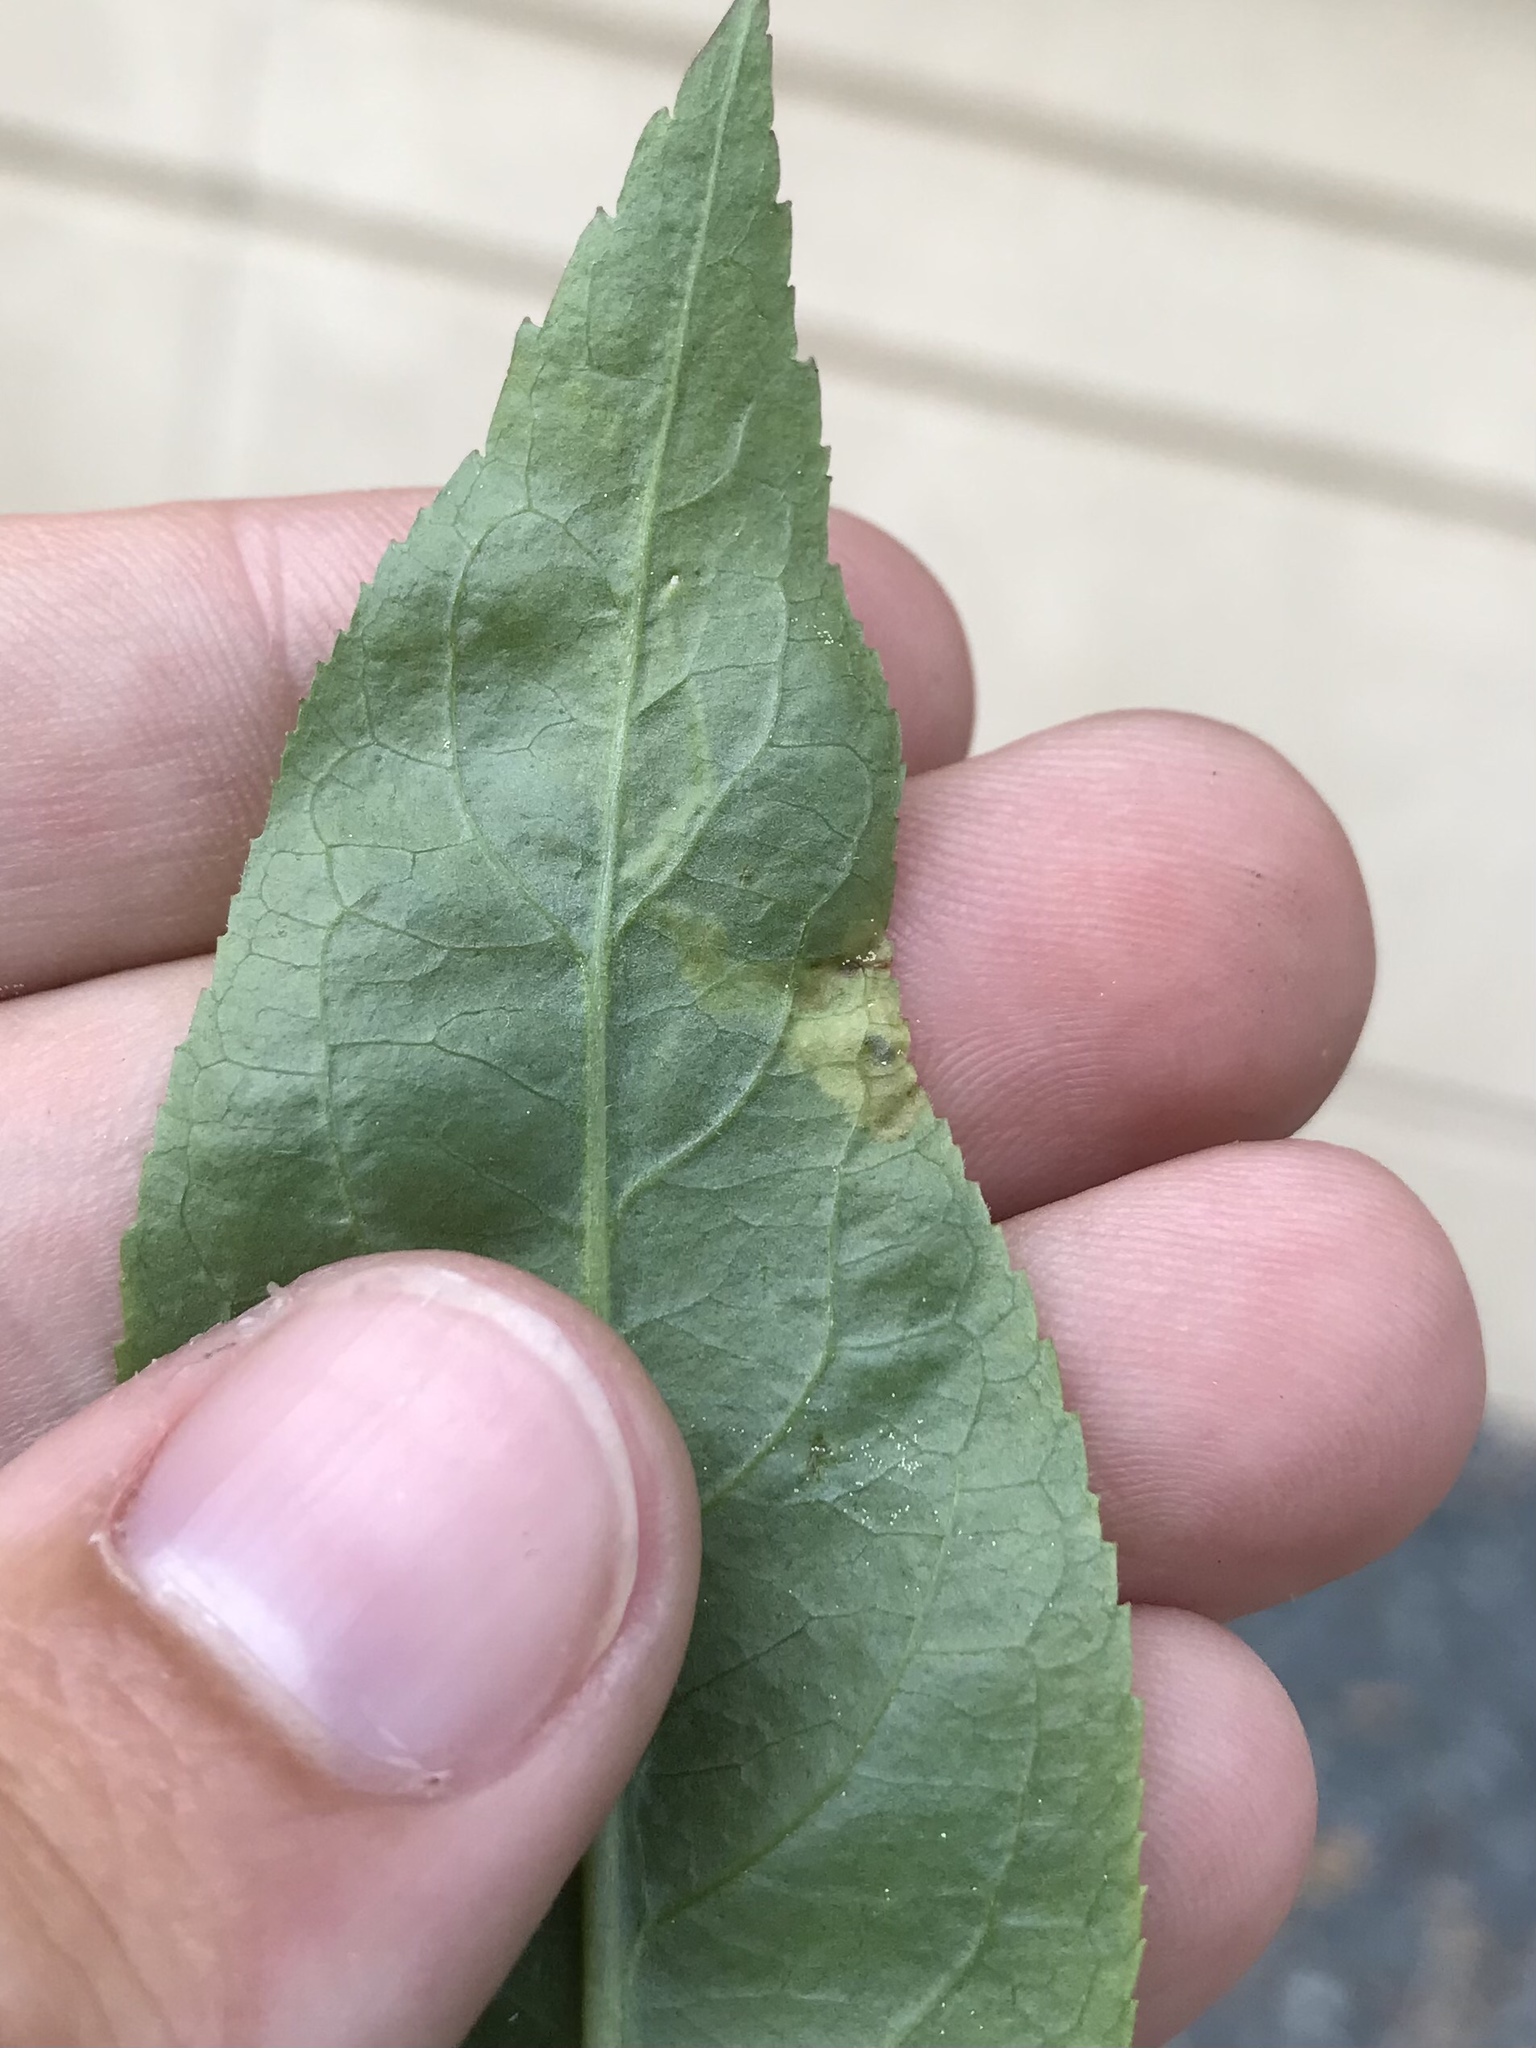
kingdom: Animalia
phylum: Arthropoda
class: Insecta
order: Diptera
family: Agromyzidae
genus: Aulagromyza
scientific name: Aulagromyza orbitalis
